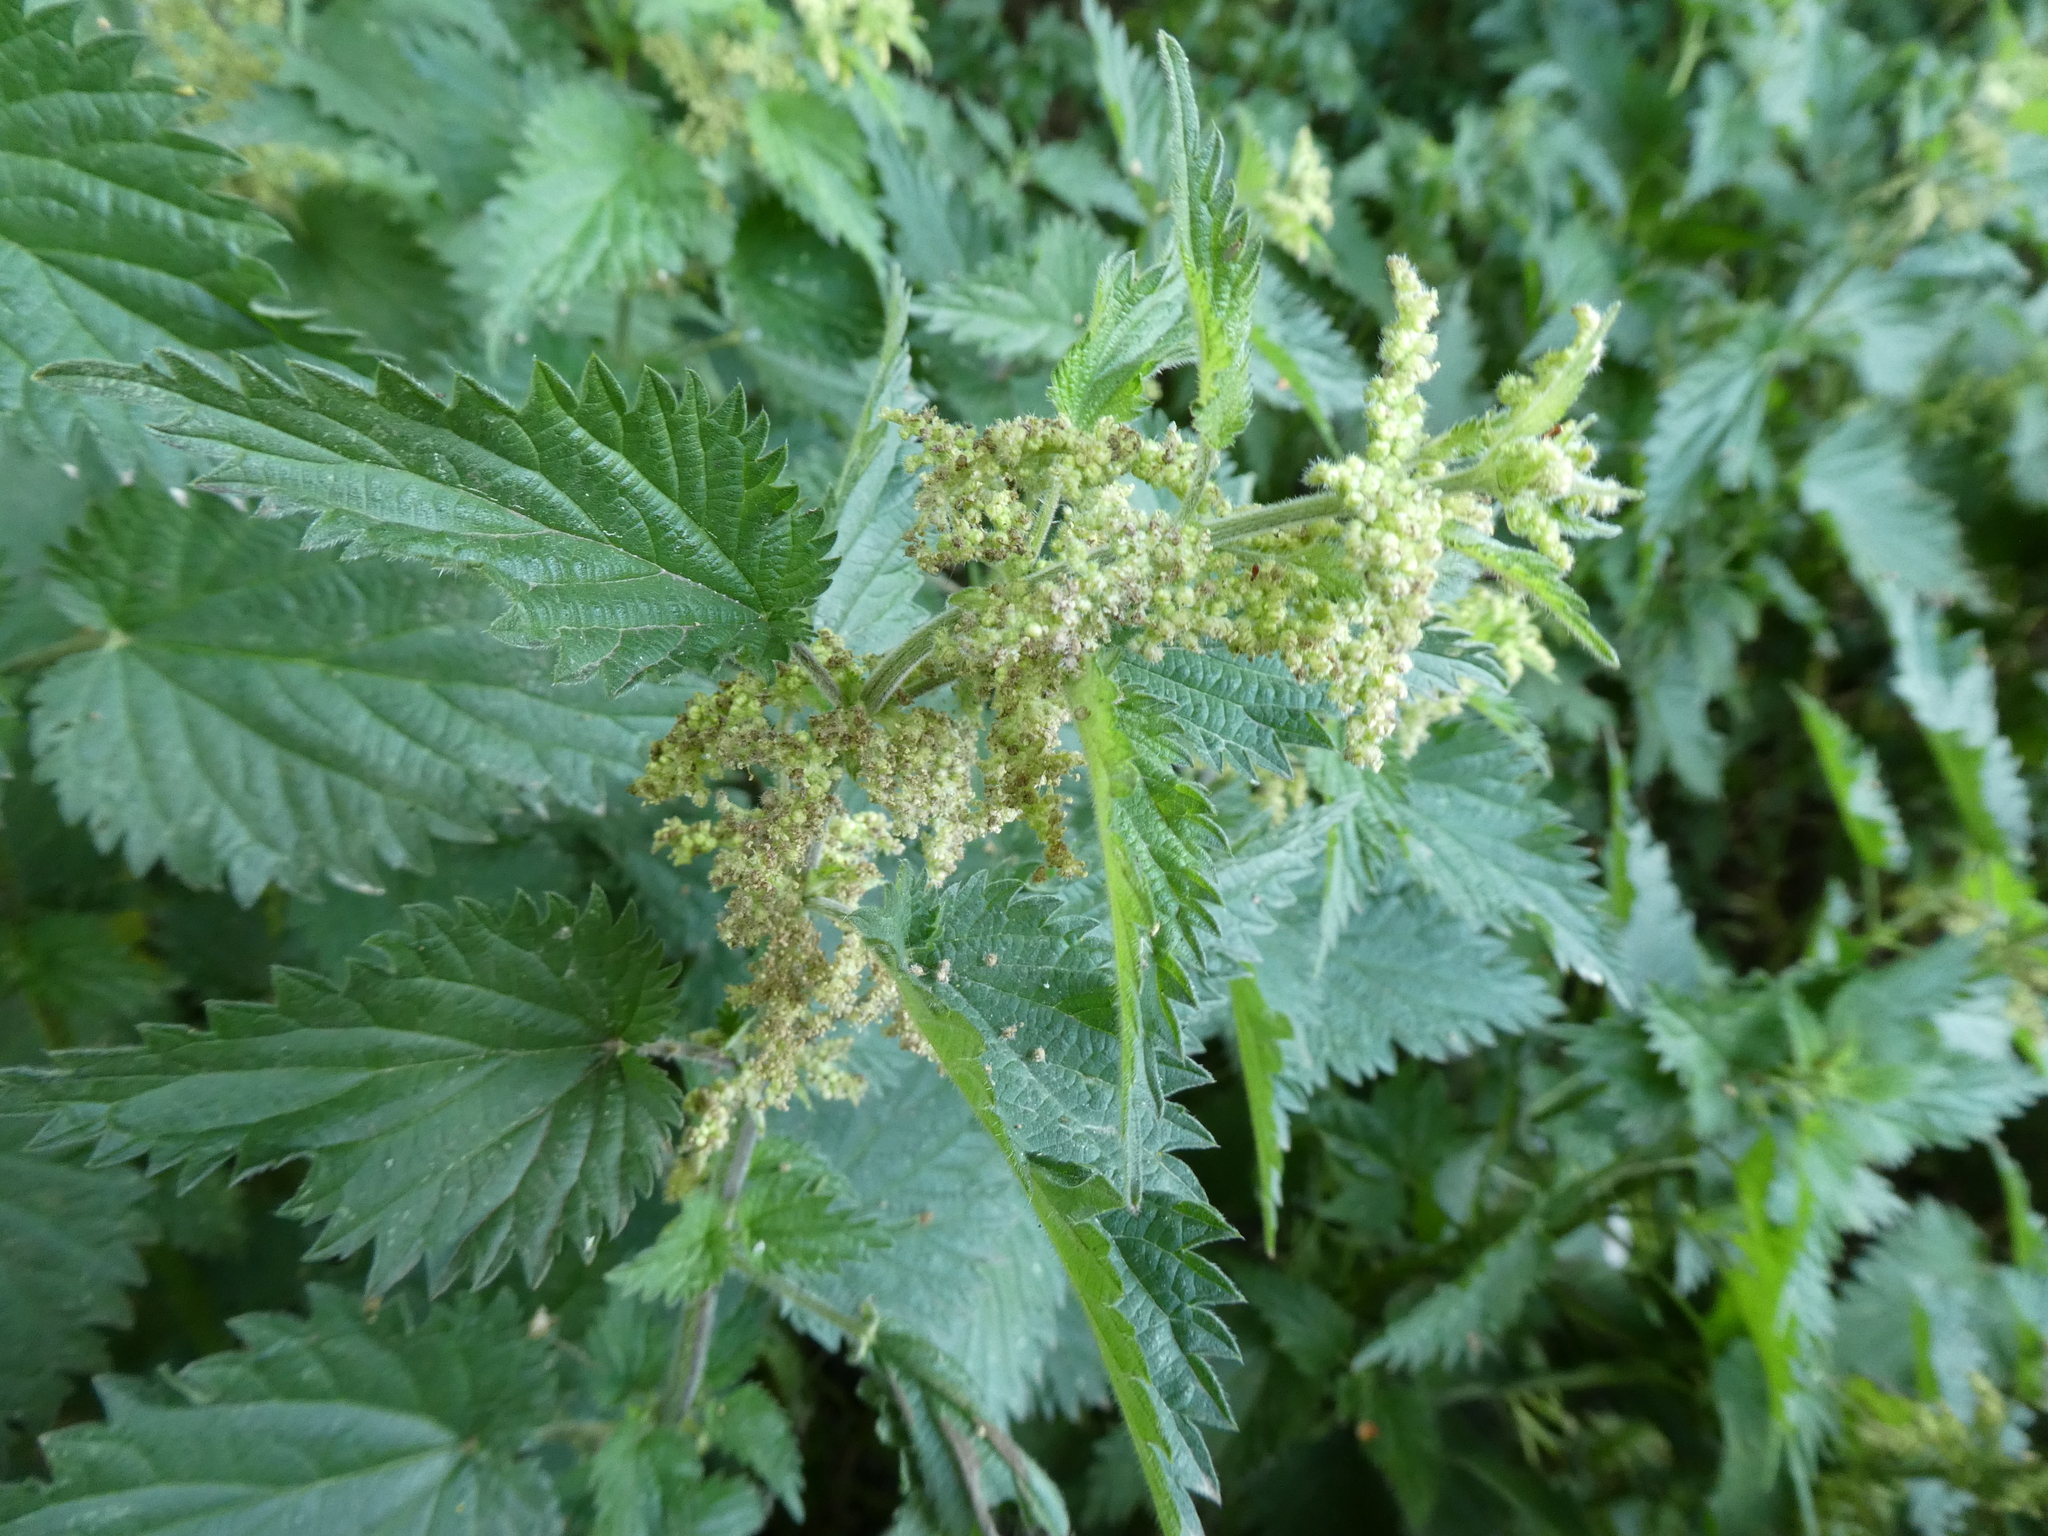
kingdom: Plantae
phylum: Tracheophyta
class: Magnoliopsida
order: Rosales
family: Urticaceae
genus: Urtica
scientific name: Urtica dioica
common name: Common nettle
